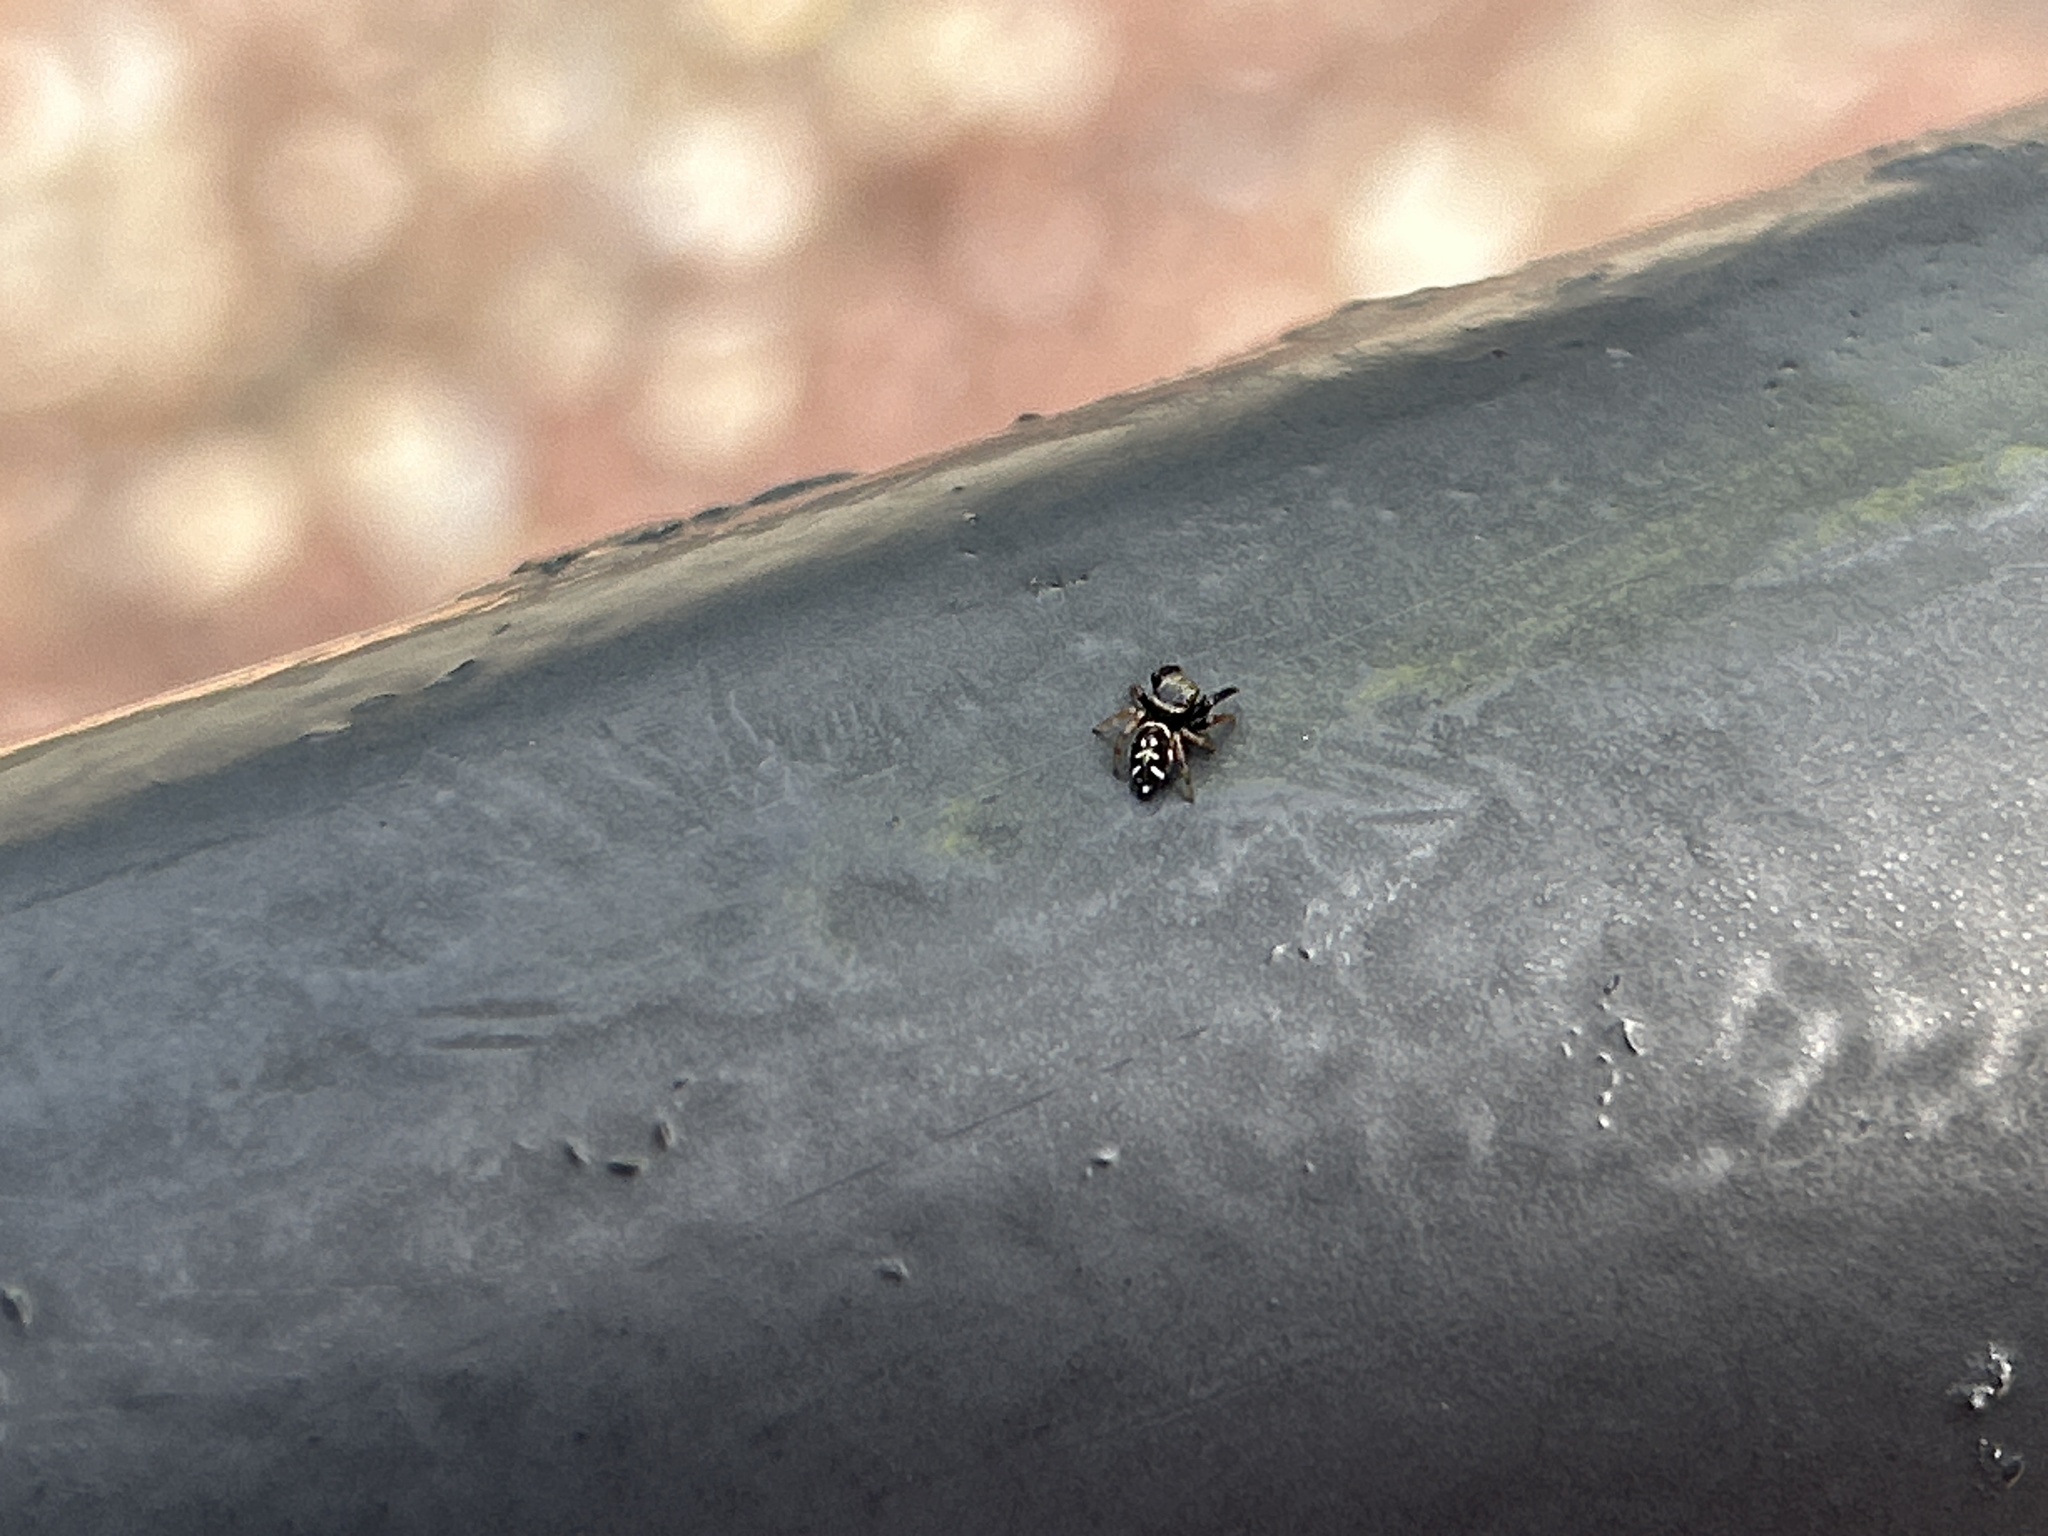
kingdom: Animalia
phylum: Arthropoda
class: Arachnida
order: Araneae
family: Salticidae
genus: Paraphidippus
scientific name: Paraphidippus aurantius
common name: Jumping spiders
